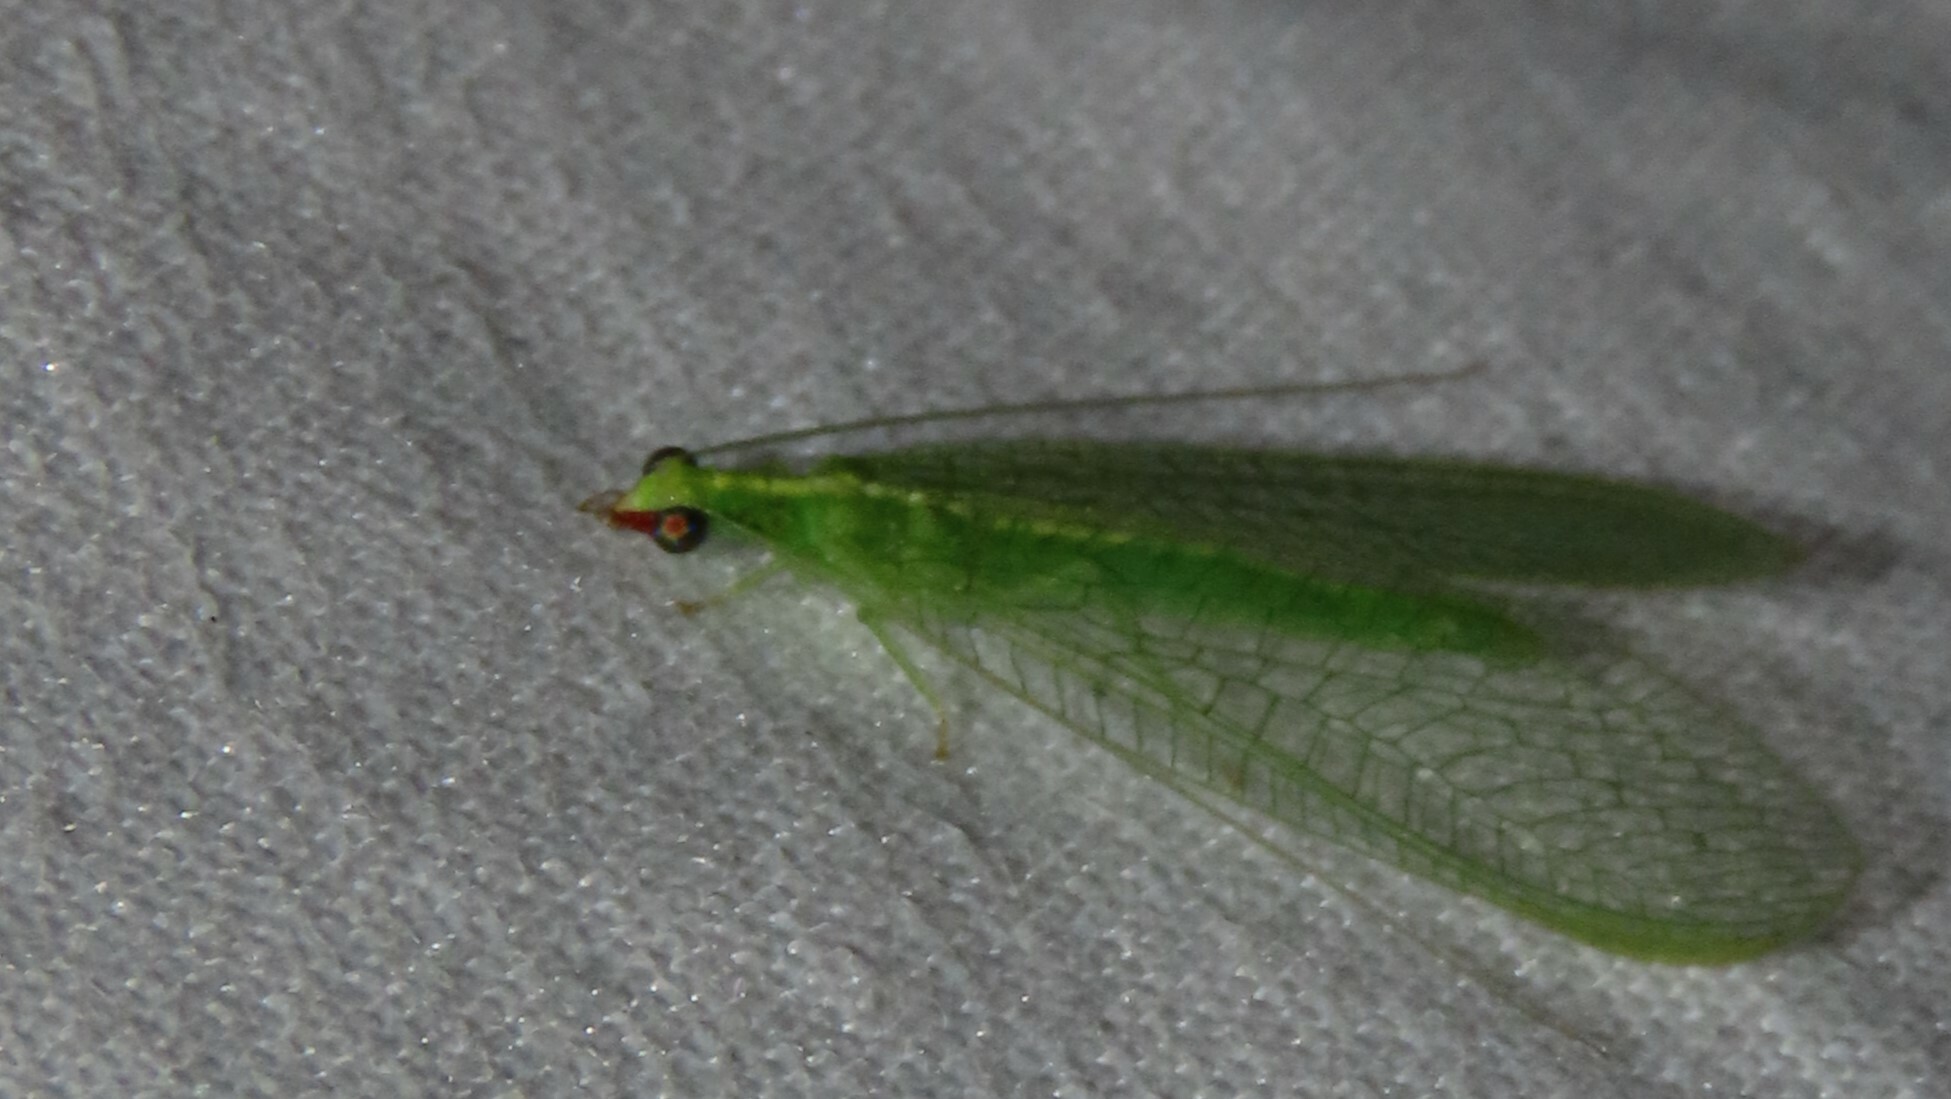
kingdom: Animalia
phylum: Arthropoda
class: Insecta
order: Neuroptera
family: Chrysopidae
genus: Chrysoperla
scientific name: Chrysoperla rufilabris
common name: Red-lipped green lacewing
